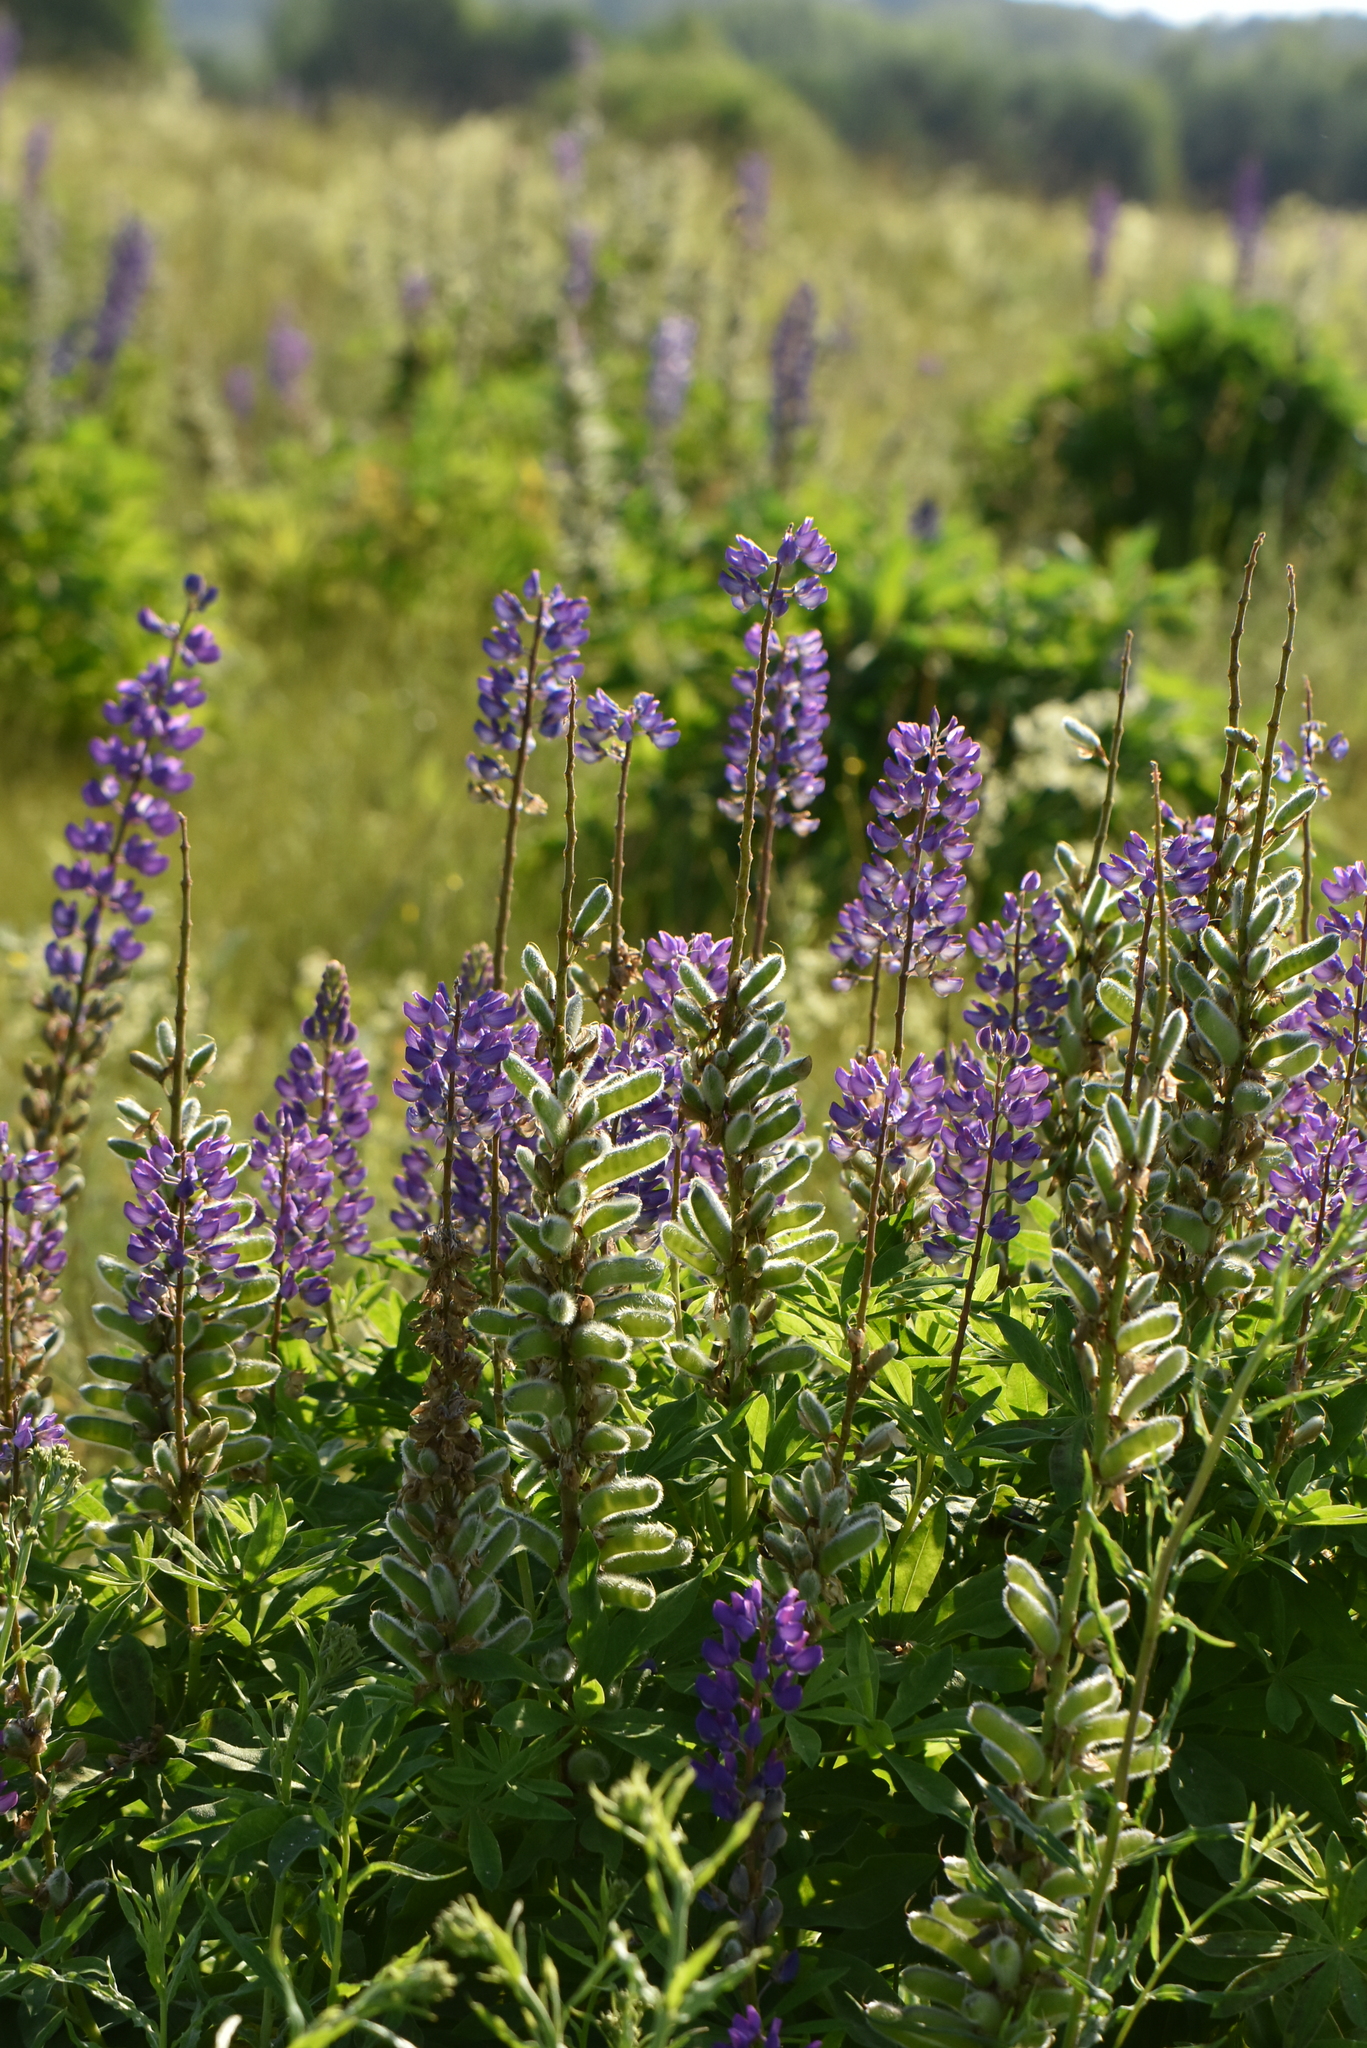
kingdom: Plantae
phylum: Tracheophyta
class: Magnoliopsida
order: Fabales
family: Fabaceae
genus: Lupinus
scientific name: Lupinus polyphyllus
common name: Garden lupin
